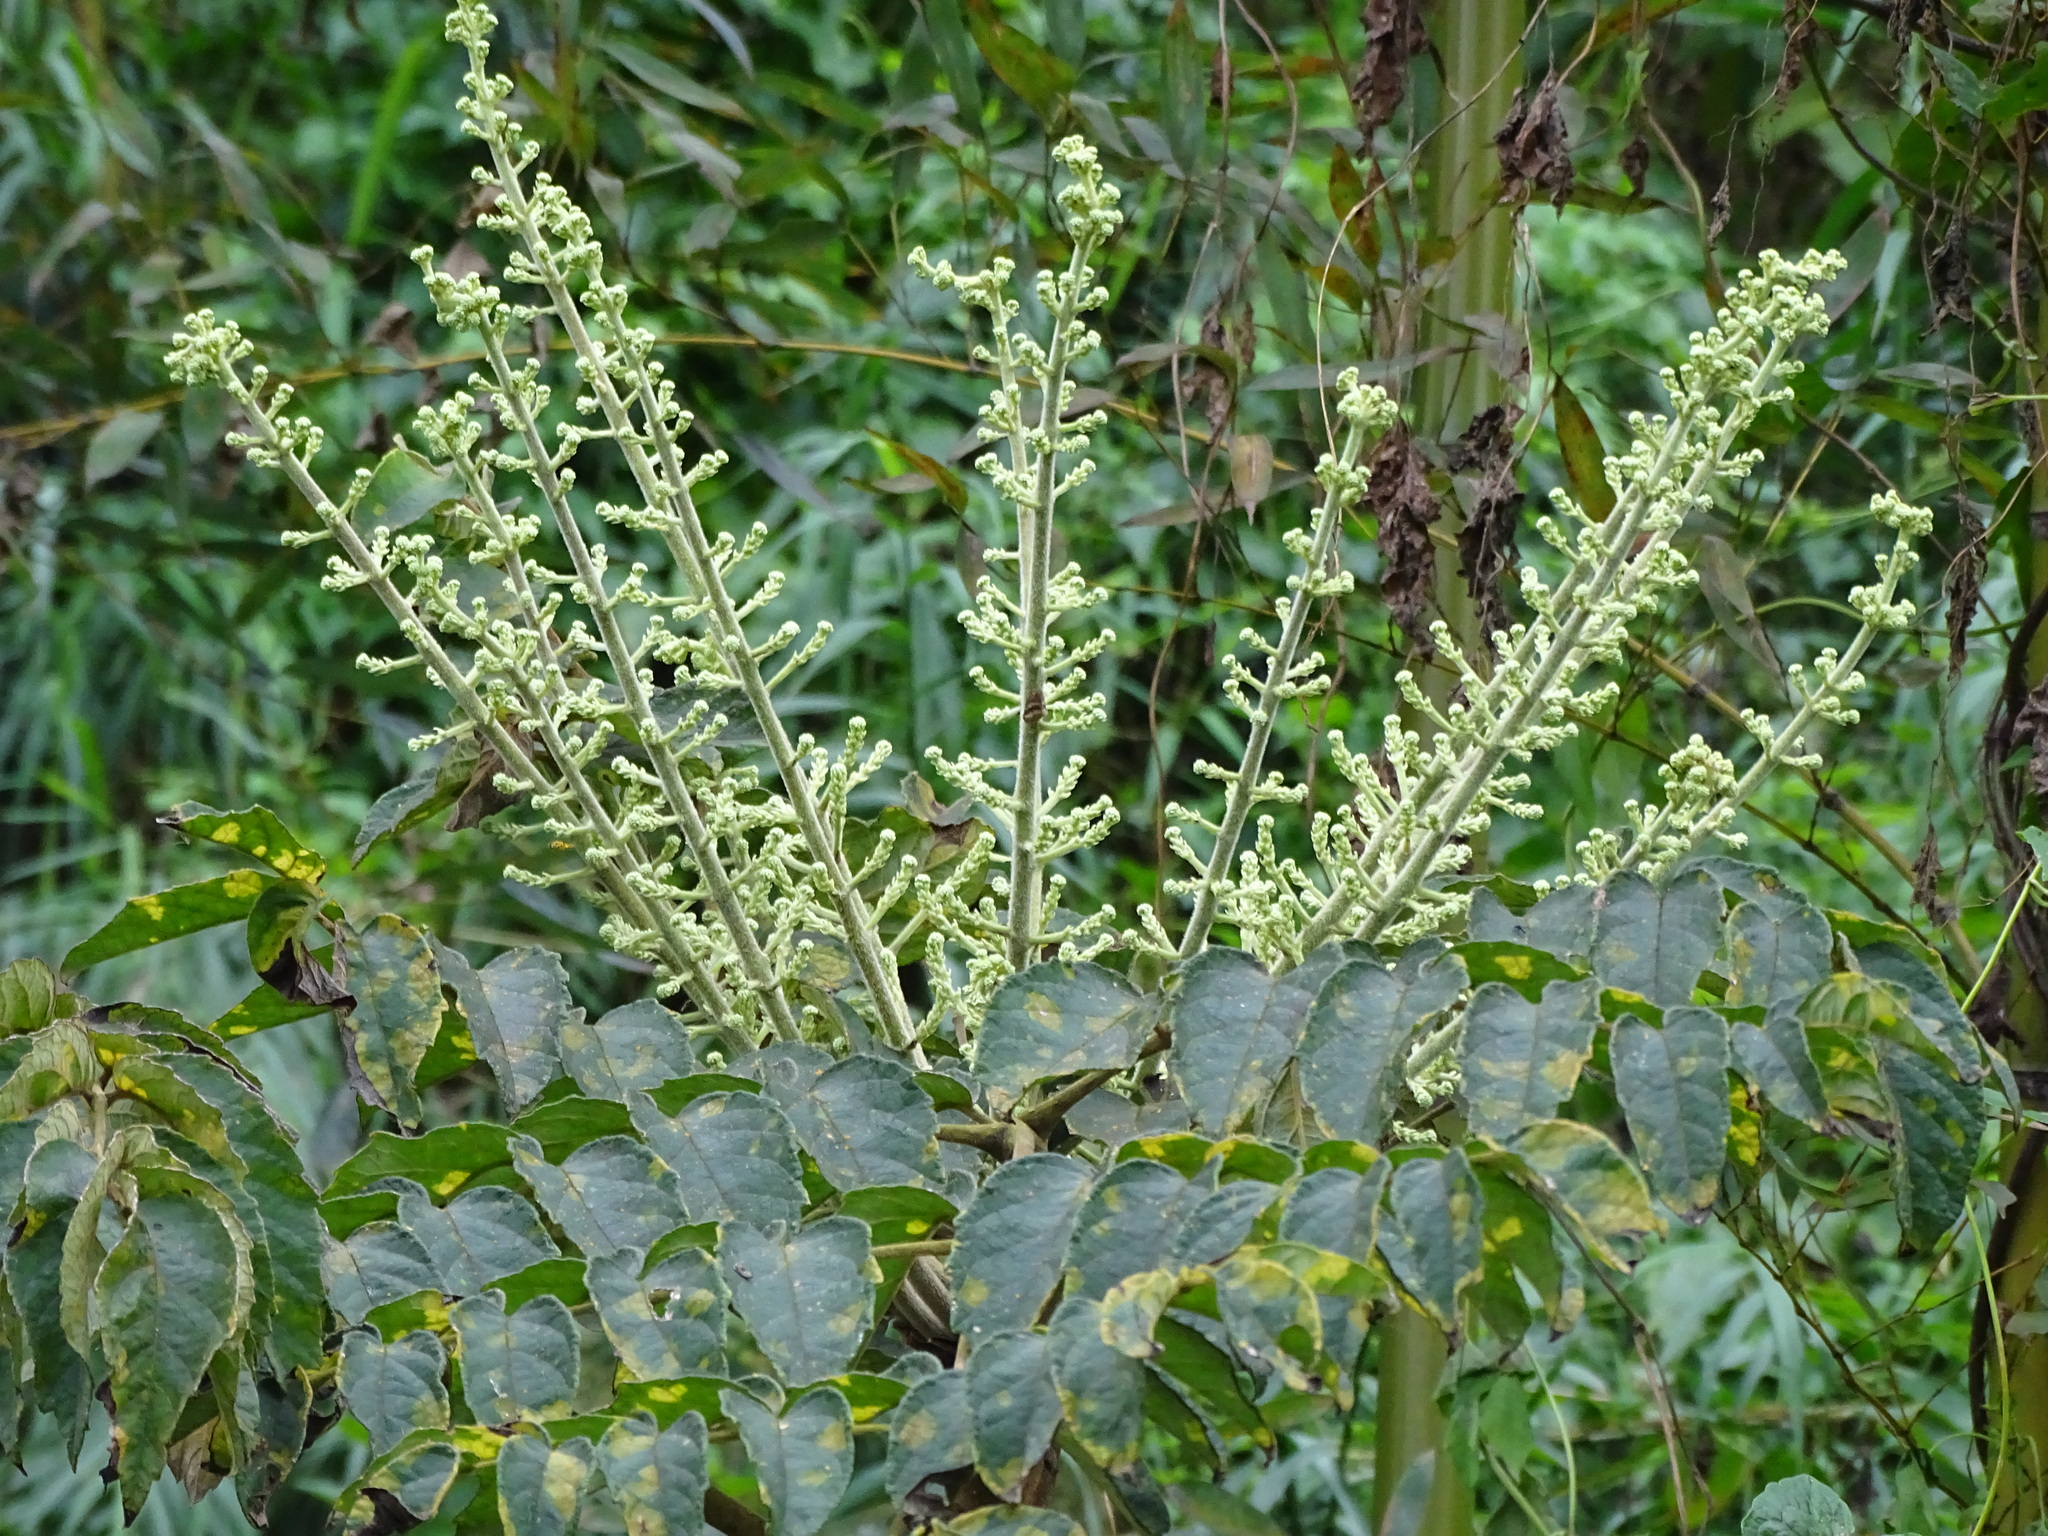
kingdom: Plantae
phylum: Tracheophyta
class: Magnoliopsida
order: Apiales
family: Araliaceae
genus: Aralia
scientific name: Aralia decaisneana
